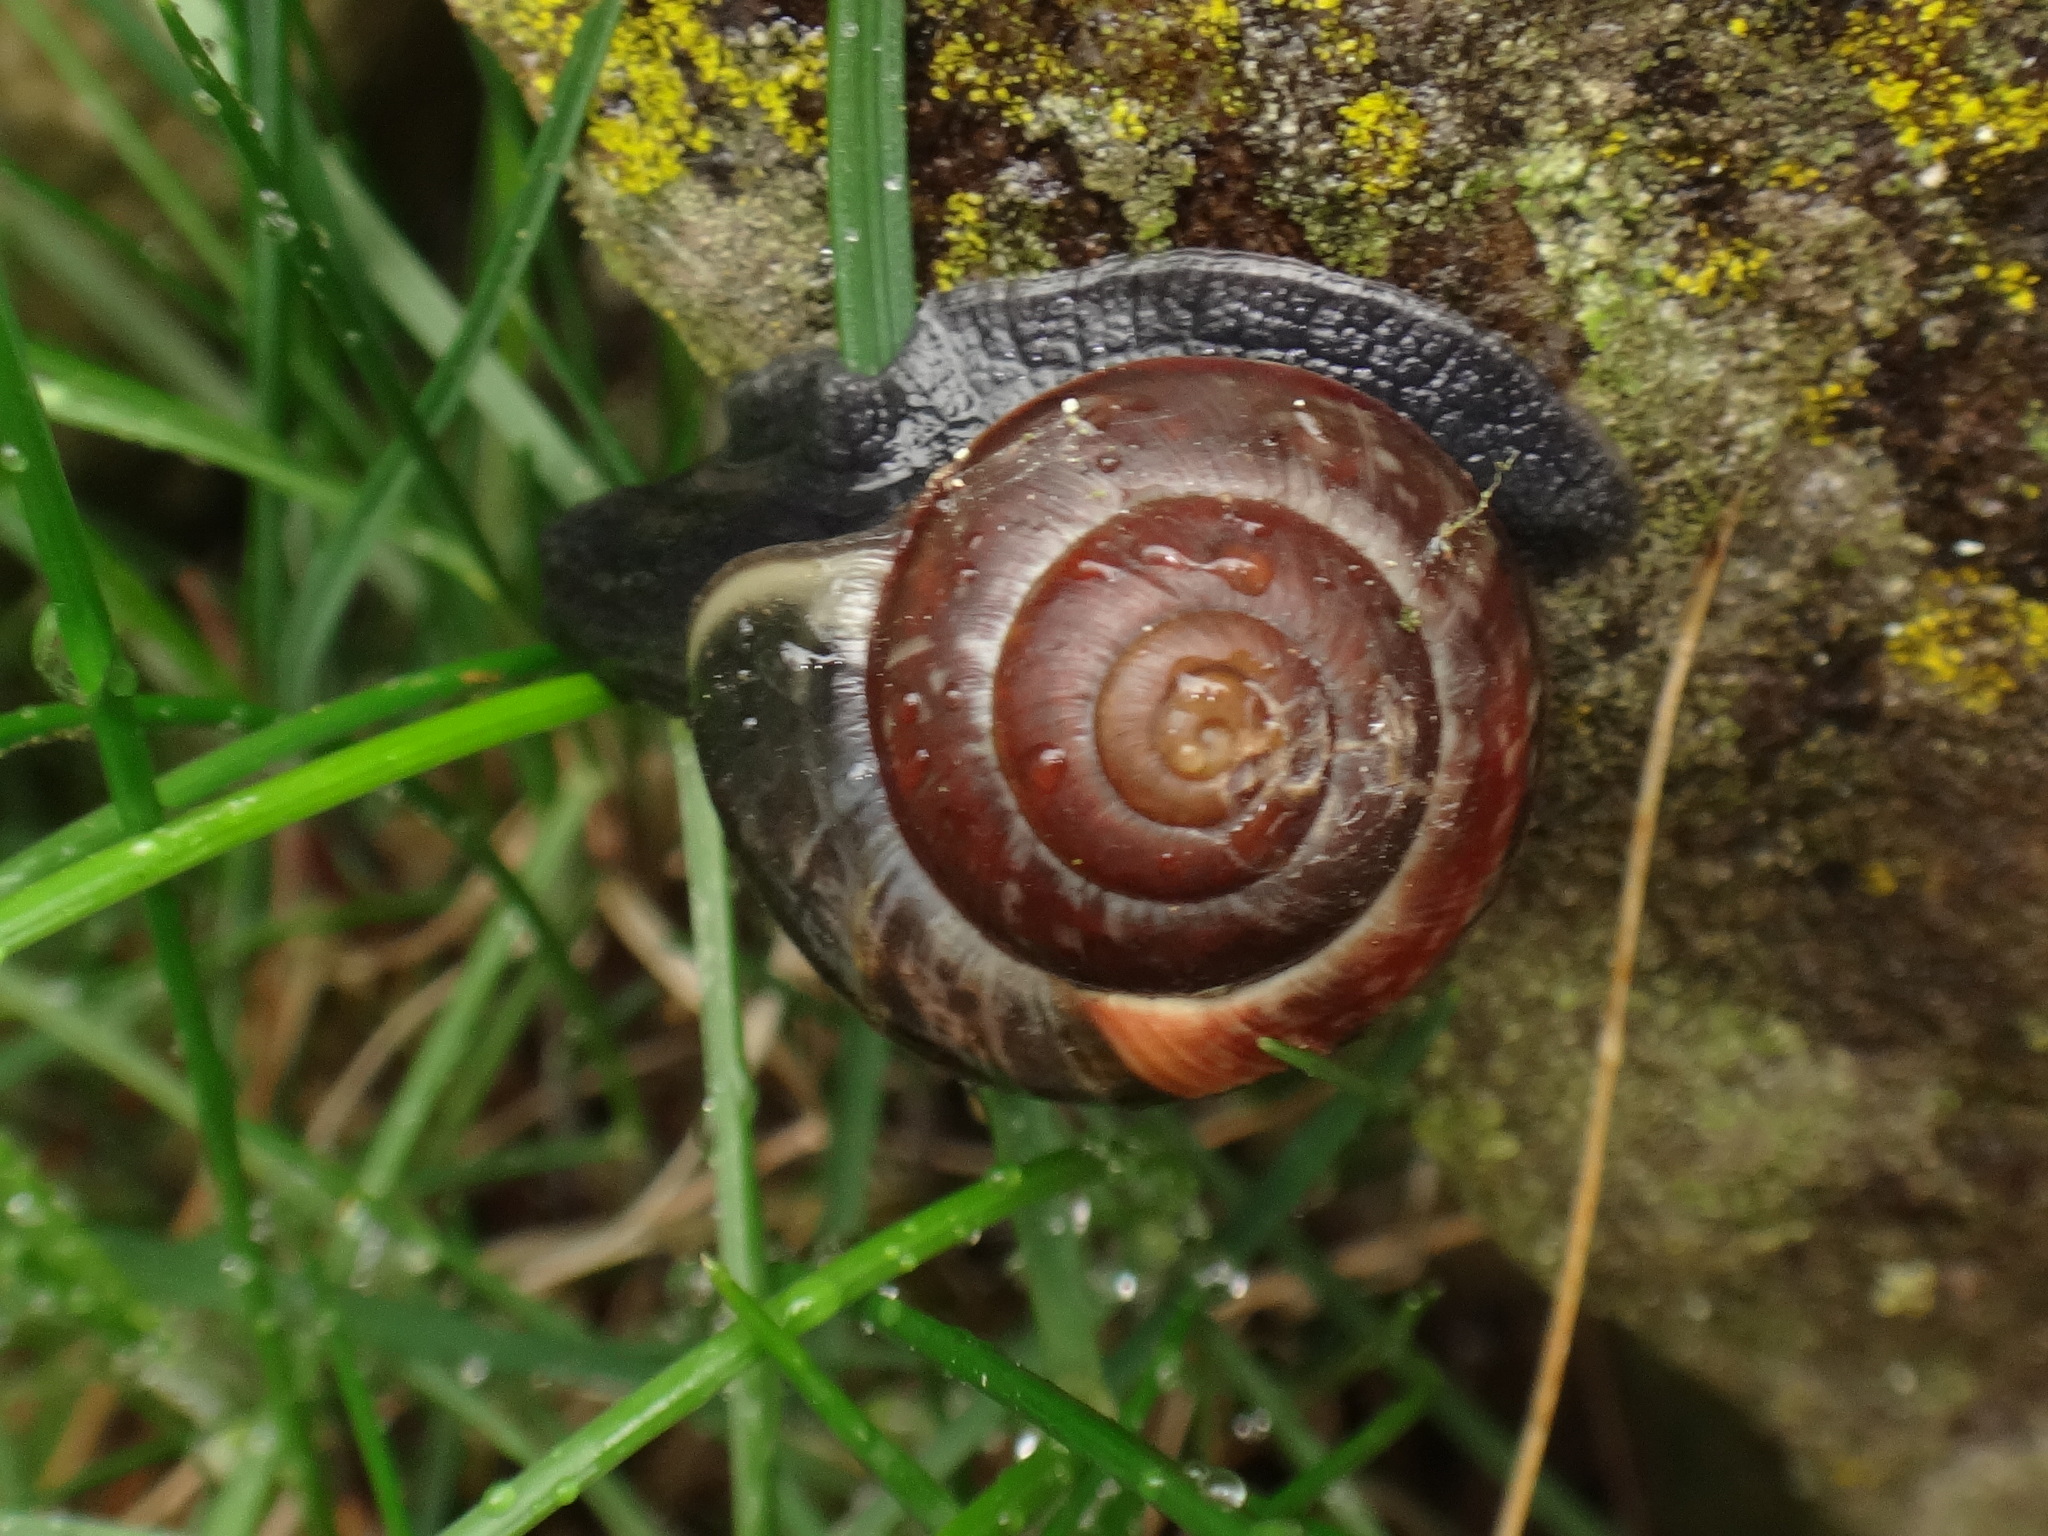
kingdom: Animalia
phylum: Mollusca
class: Gastropoda
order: Stylommatophora
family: Helicidae
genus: Arianta
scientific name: Arianta arbustorum
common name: Copse snail
